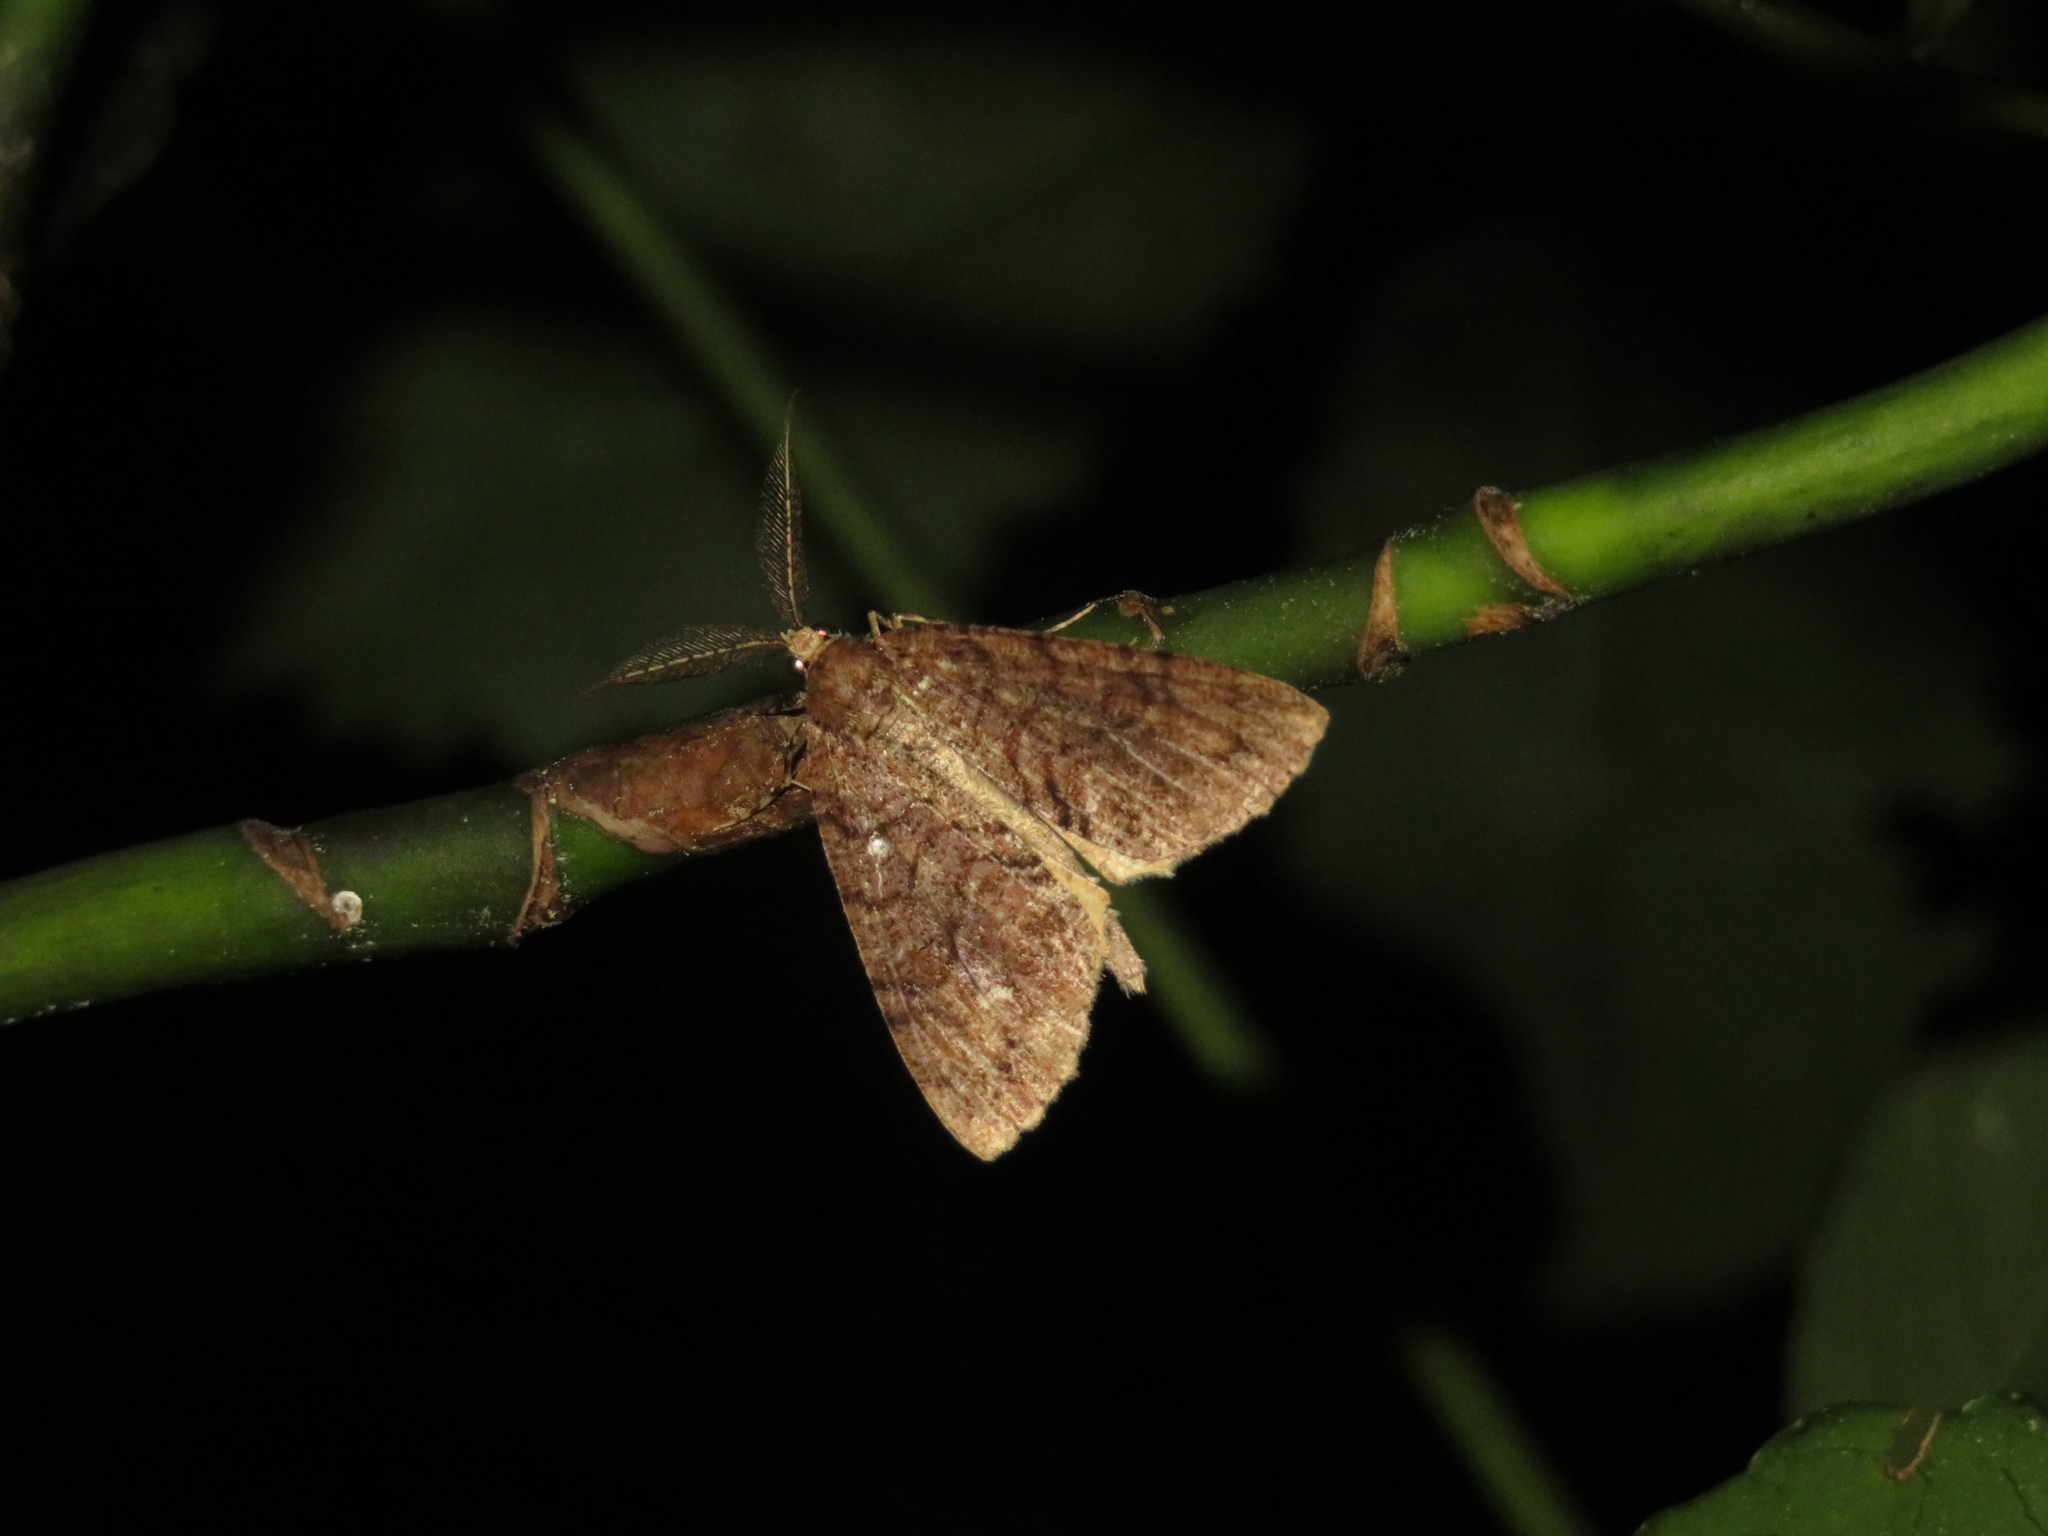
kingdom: Animalia
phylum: Arthropoda
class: Insecta
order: Lepidoptera
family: Geometridae
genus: Pseudocoremia
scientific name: Pseudocoremia suavis
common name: Common forest looper
